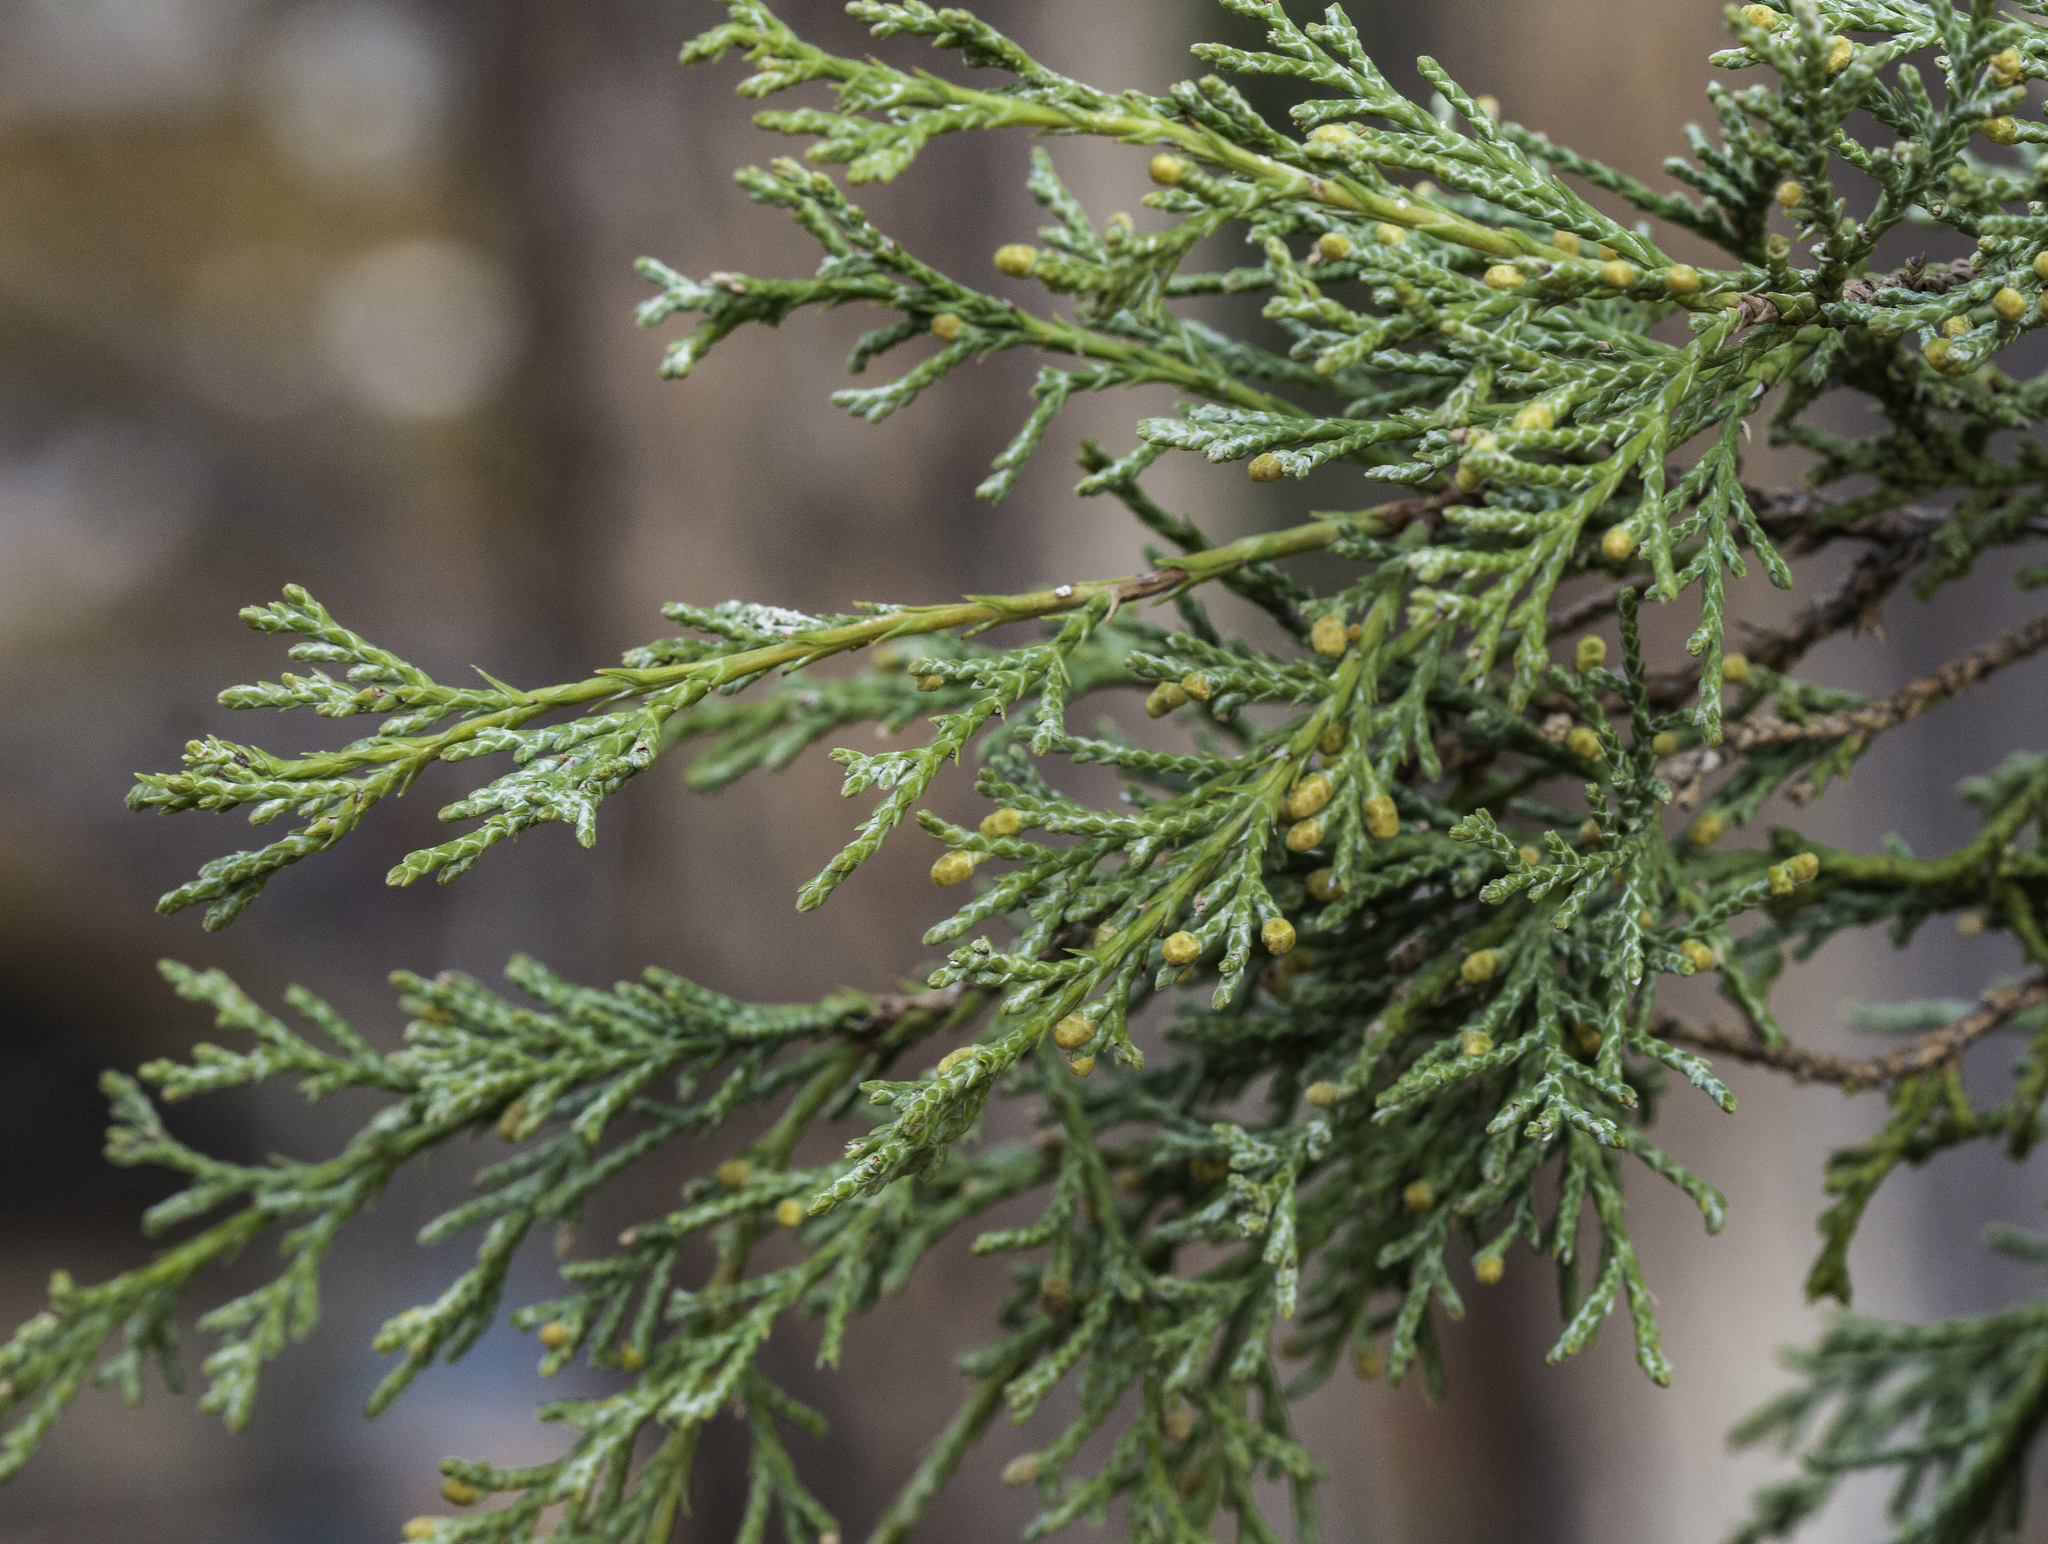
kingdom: Plantae
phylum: Tracheophyta
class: Pinopsida
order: Pinales
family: Cupressaceae
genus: Juniperus
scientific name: Juniperus scopulorum
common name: Rocky mountain juniper
